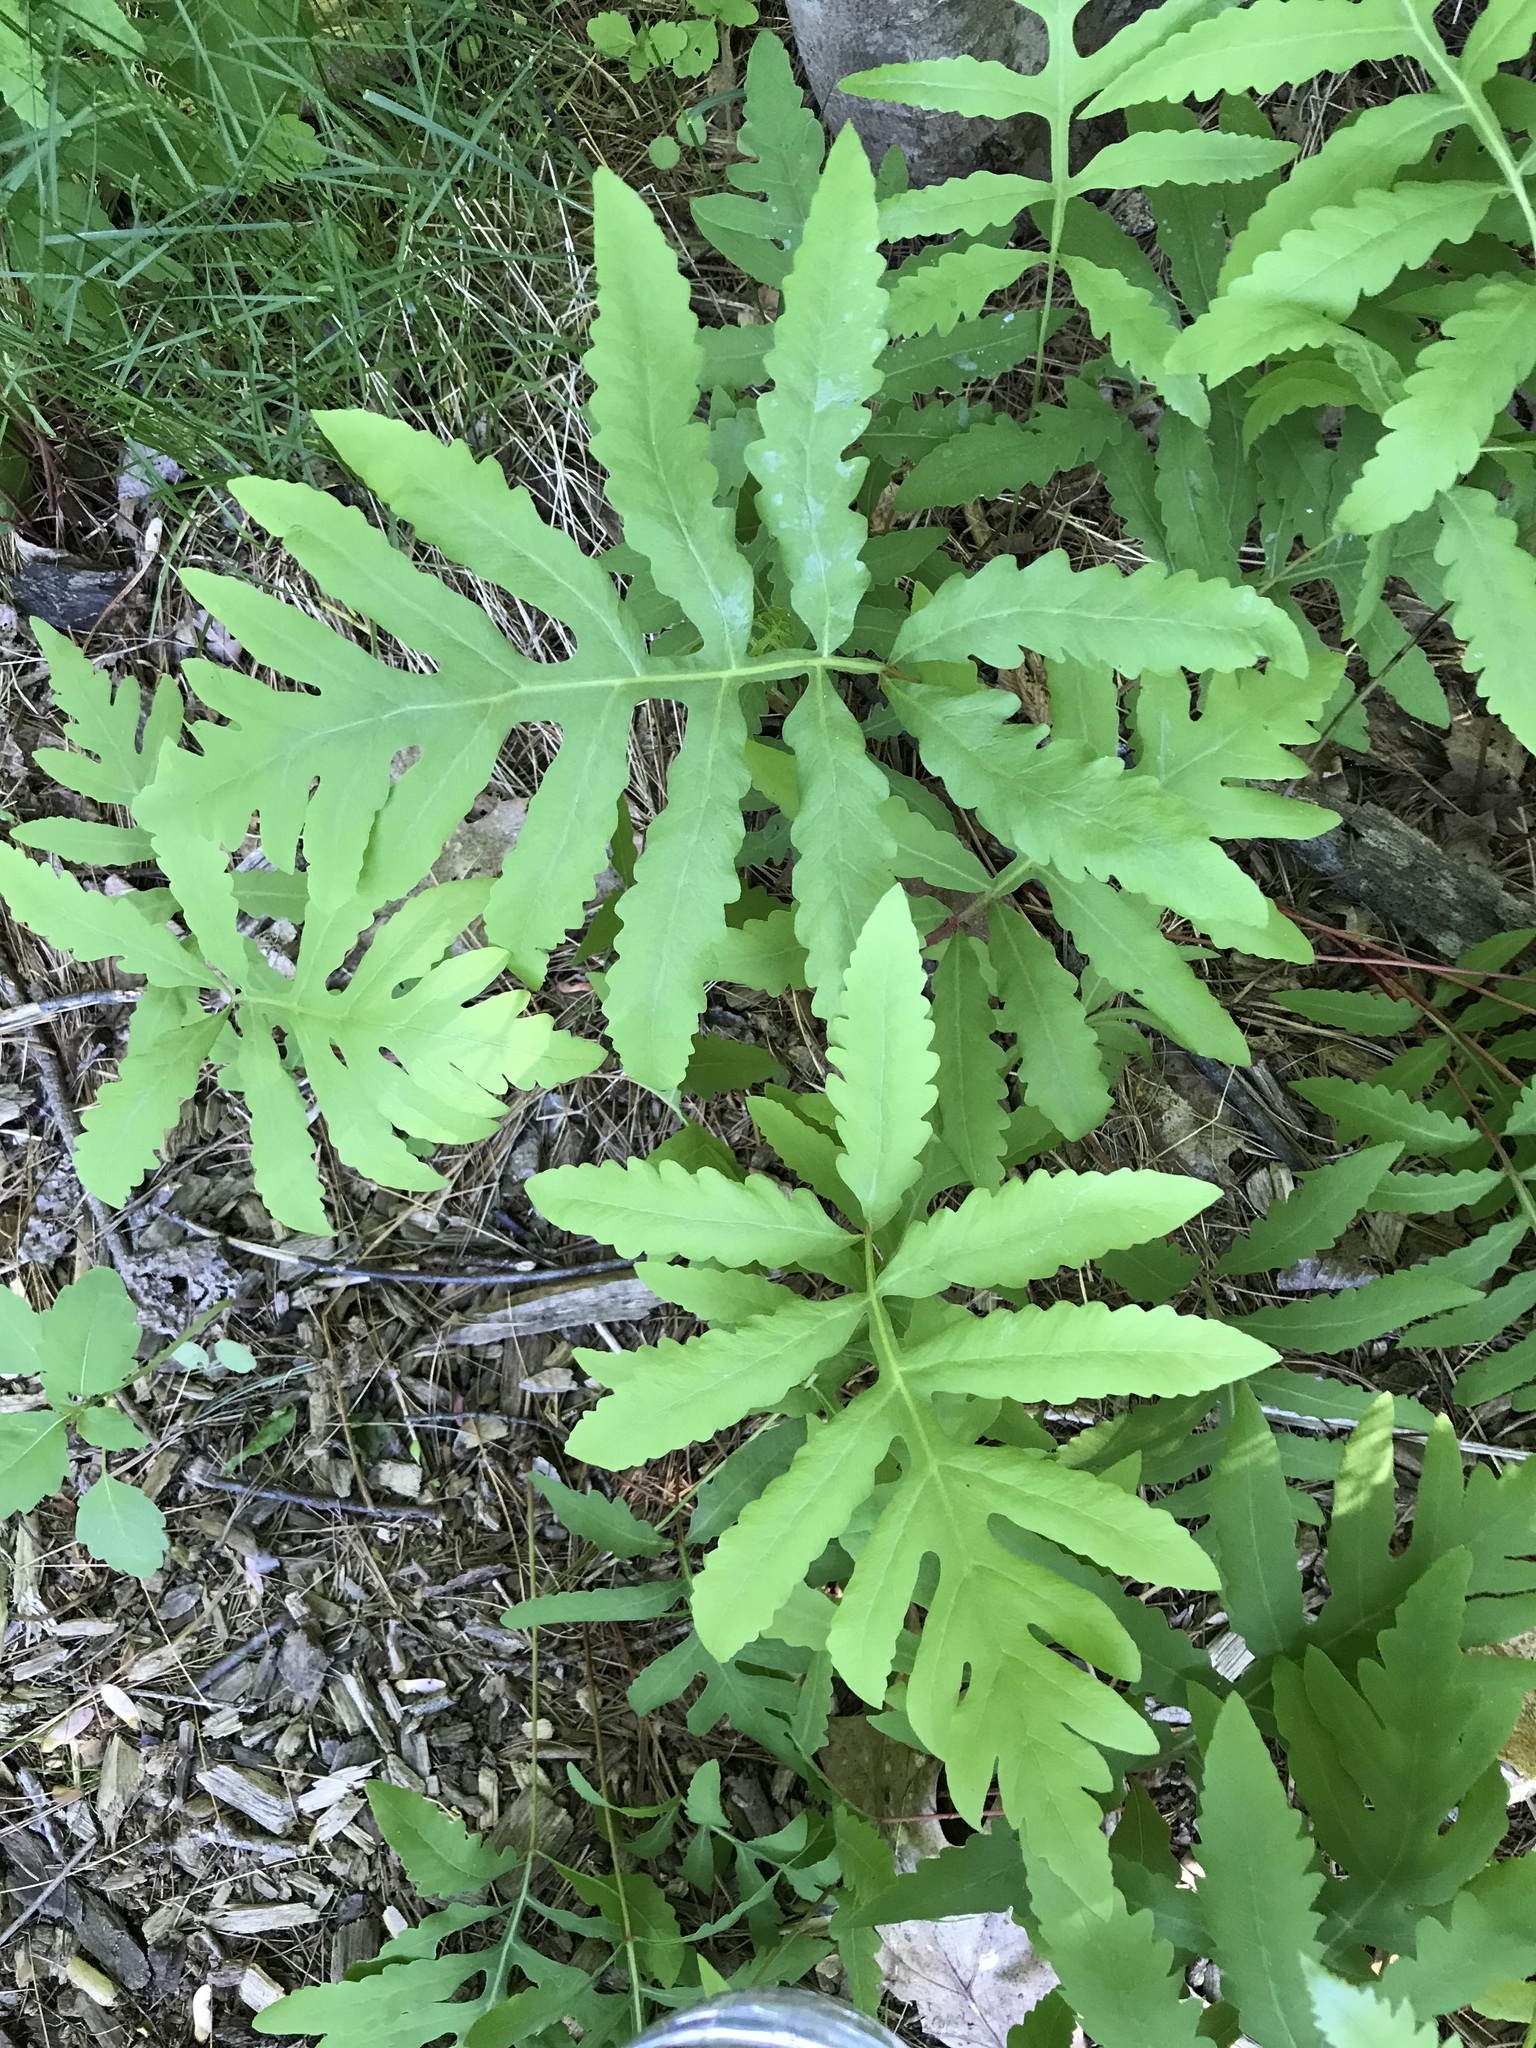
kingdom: Plantae
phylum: Tracheophyta
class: Polypodiopsida
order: Polypodiales
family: Onocleaceae
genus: Onoclea
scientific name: Onoclea sensibilis
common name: Sensitive fern
